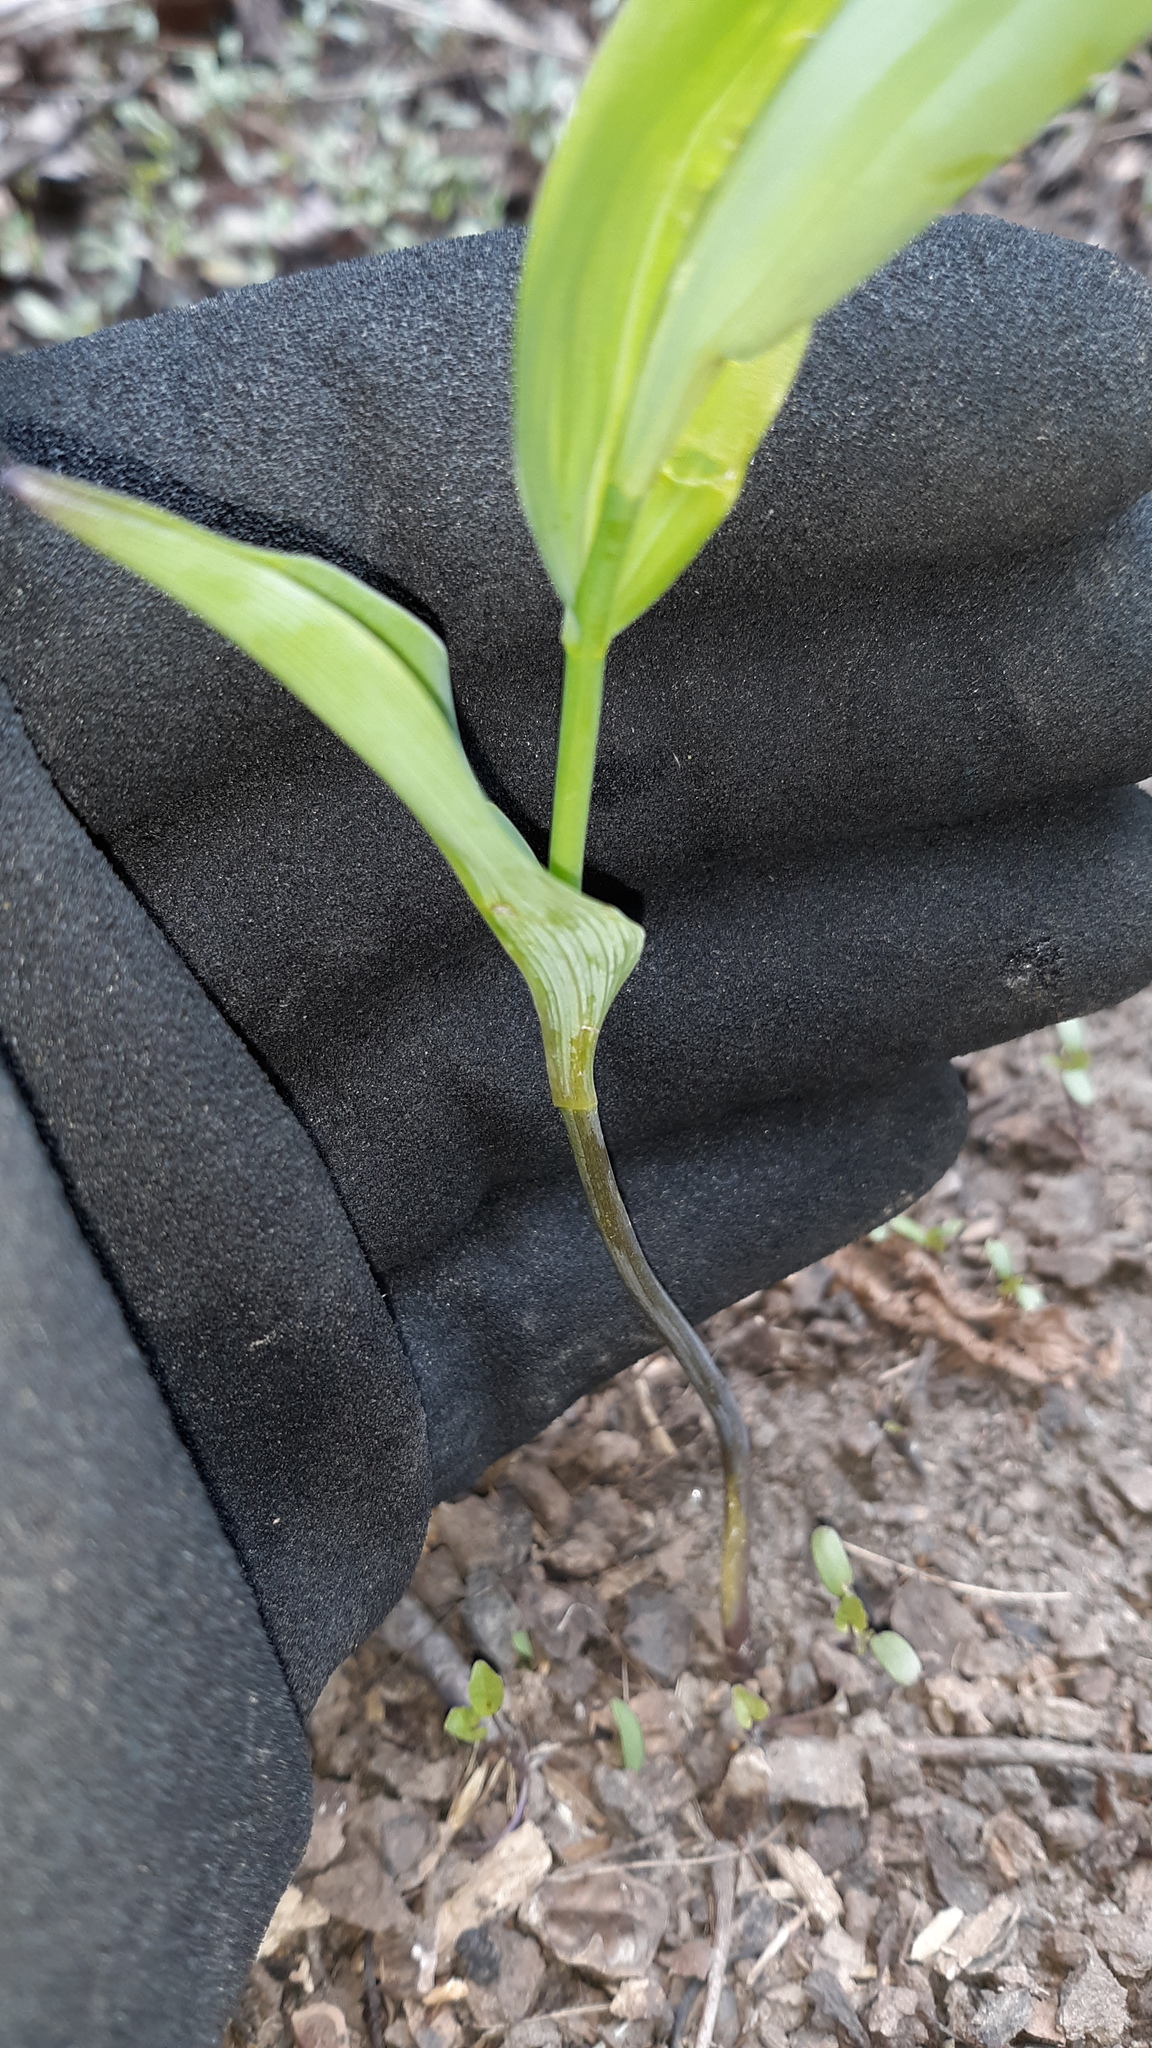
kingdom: Plantae
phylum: Tracheophyta
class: Liliopsida
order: Asparagales
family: Asparagaceae
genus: Polygonatum
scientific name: Polygonatum biflorum
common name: American solomon's-seal
